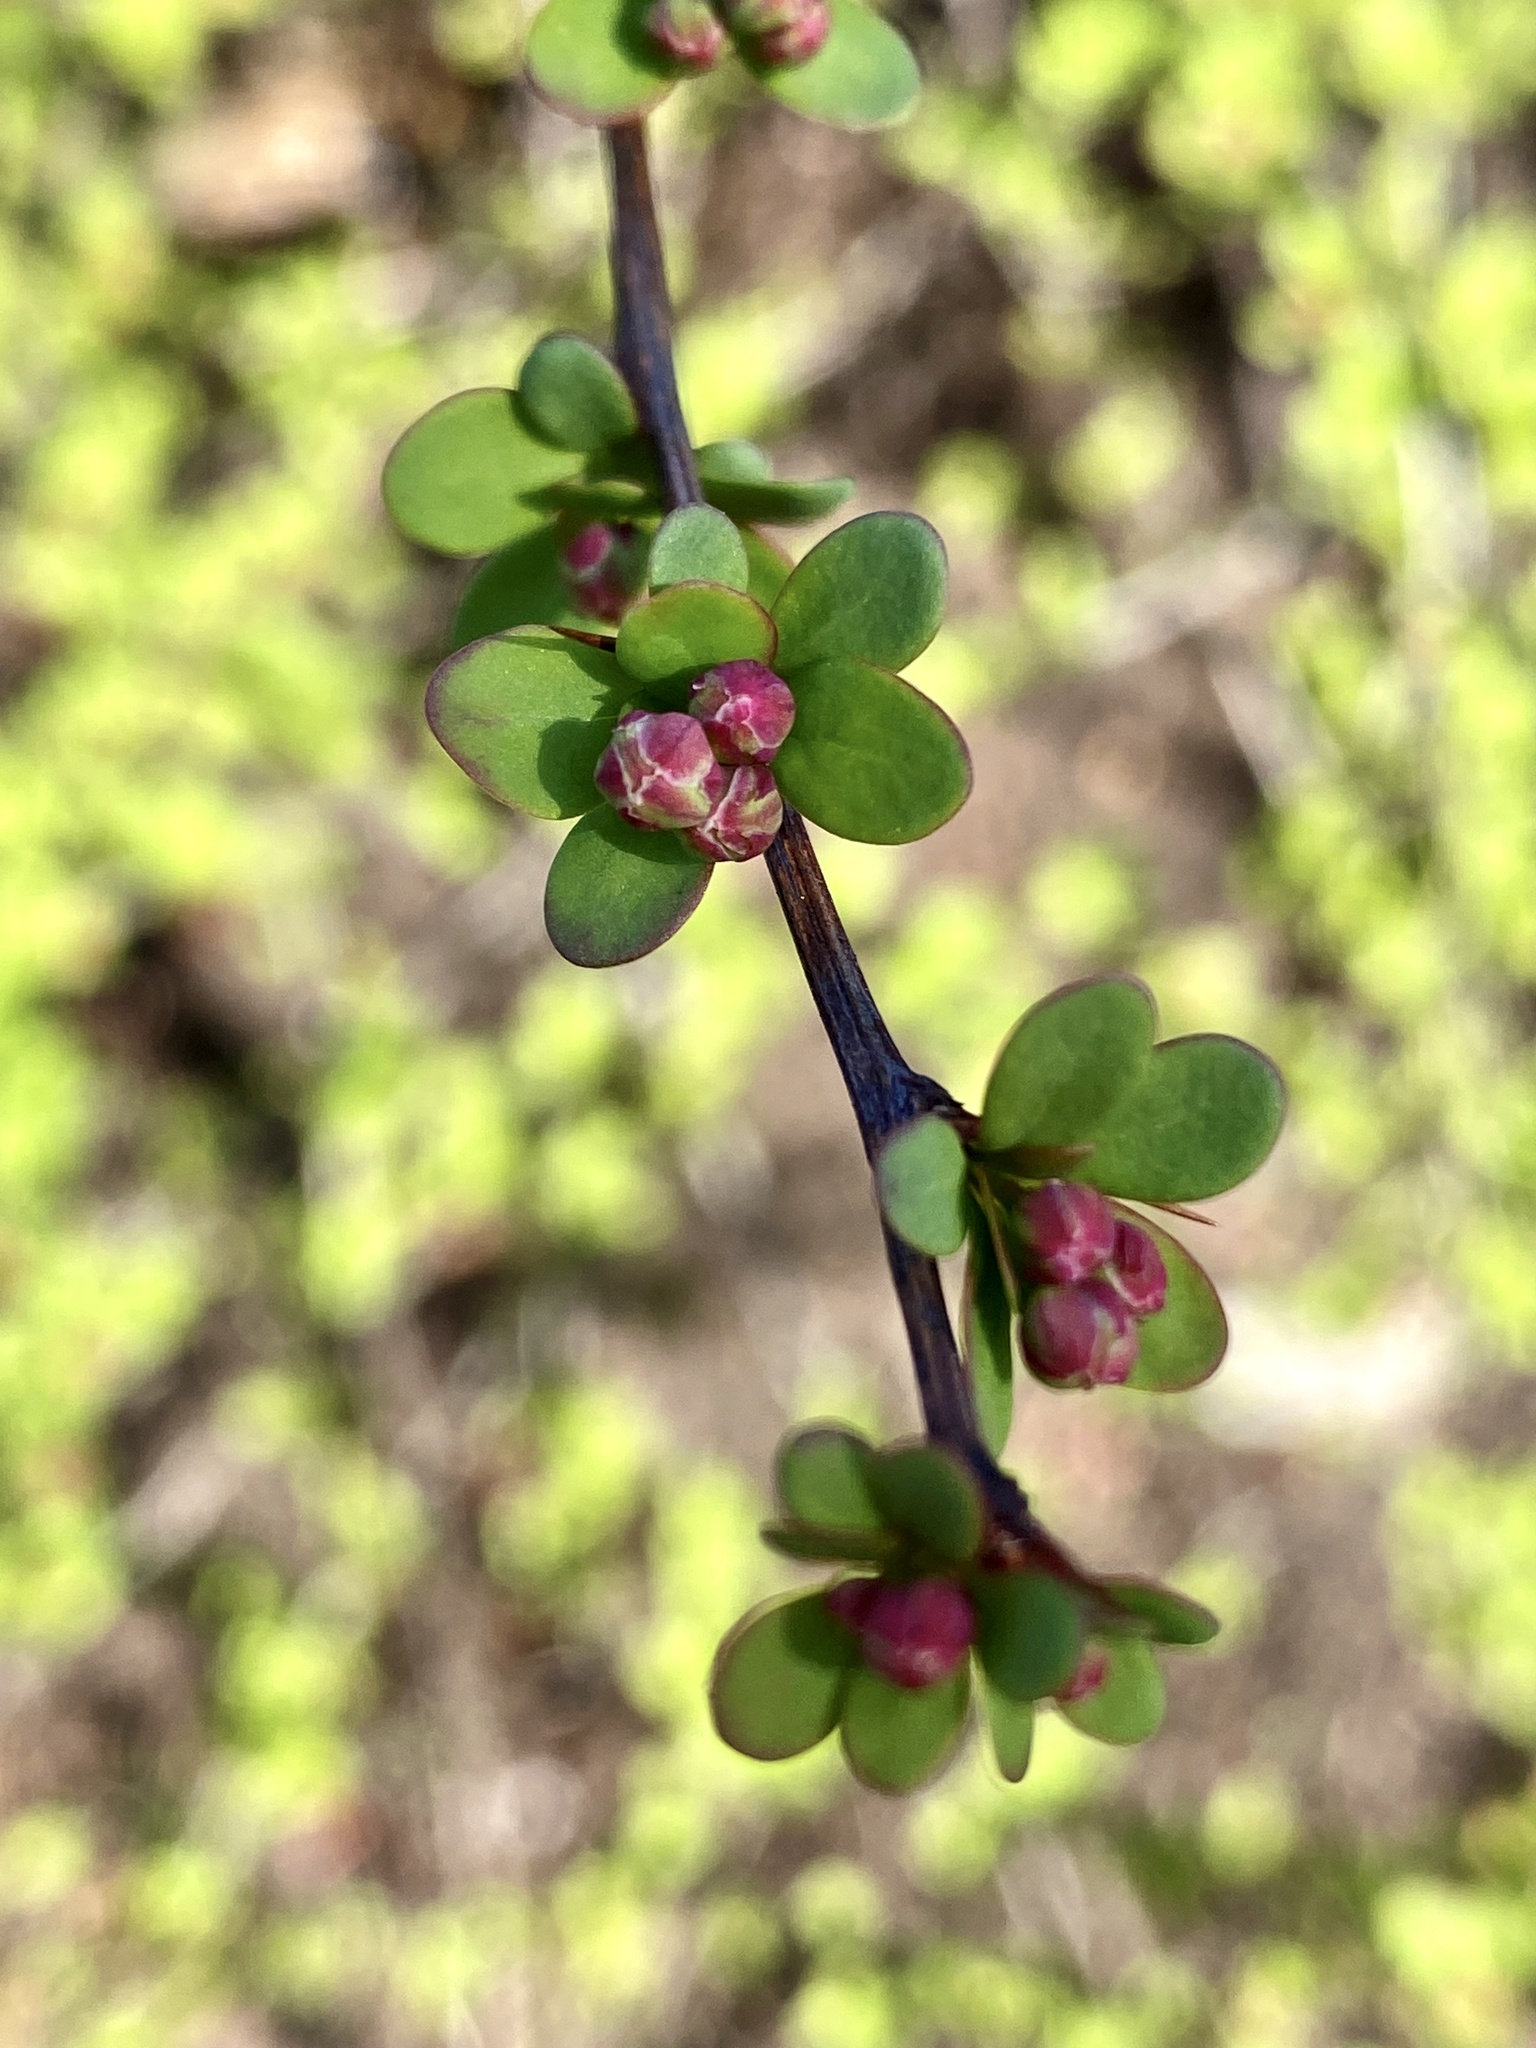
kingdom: Plantae
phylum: Tracheophyta
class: Magnoliopsida
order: Ranunculales
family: Berberidaceae
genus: Berberis
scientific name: Berberis thunbergii
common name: Japanese barberry
